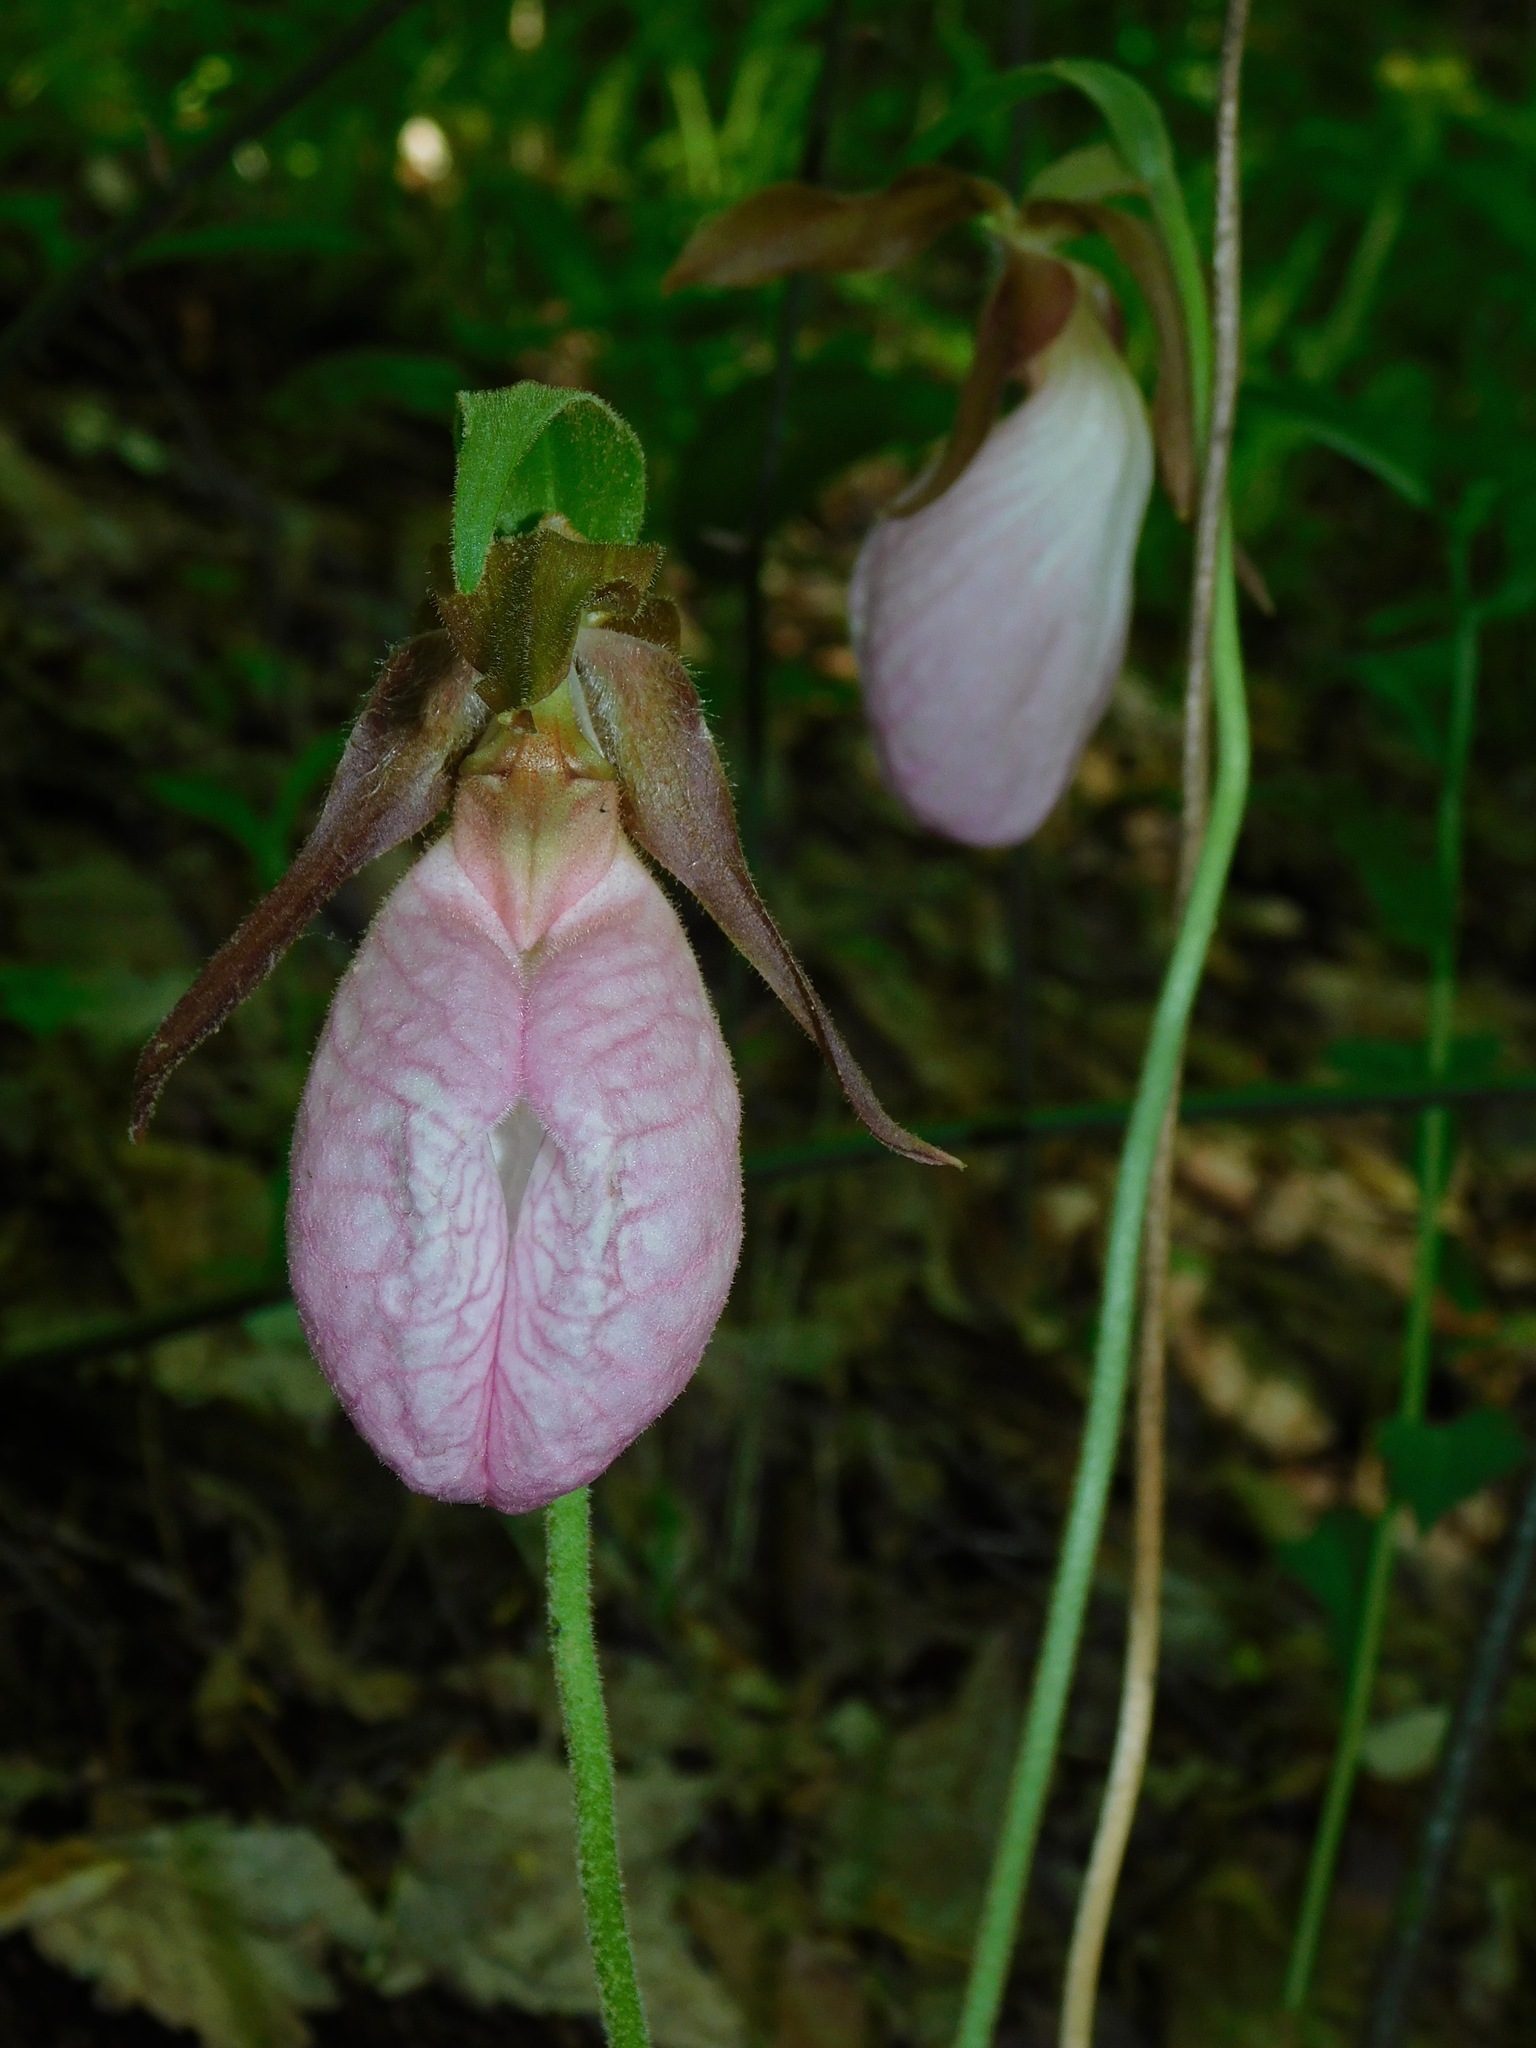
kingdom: Plantae
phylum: Tracheophyta
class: Liliopsida
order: Asparagales
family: Orchidaceae
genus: Cypripedium
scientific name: Cypripedium acaule
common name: Pink lady's-slipper
